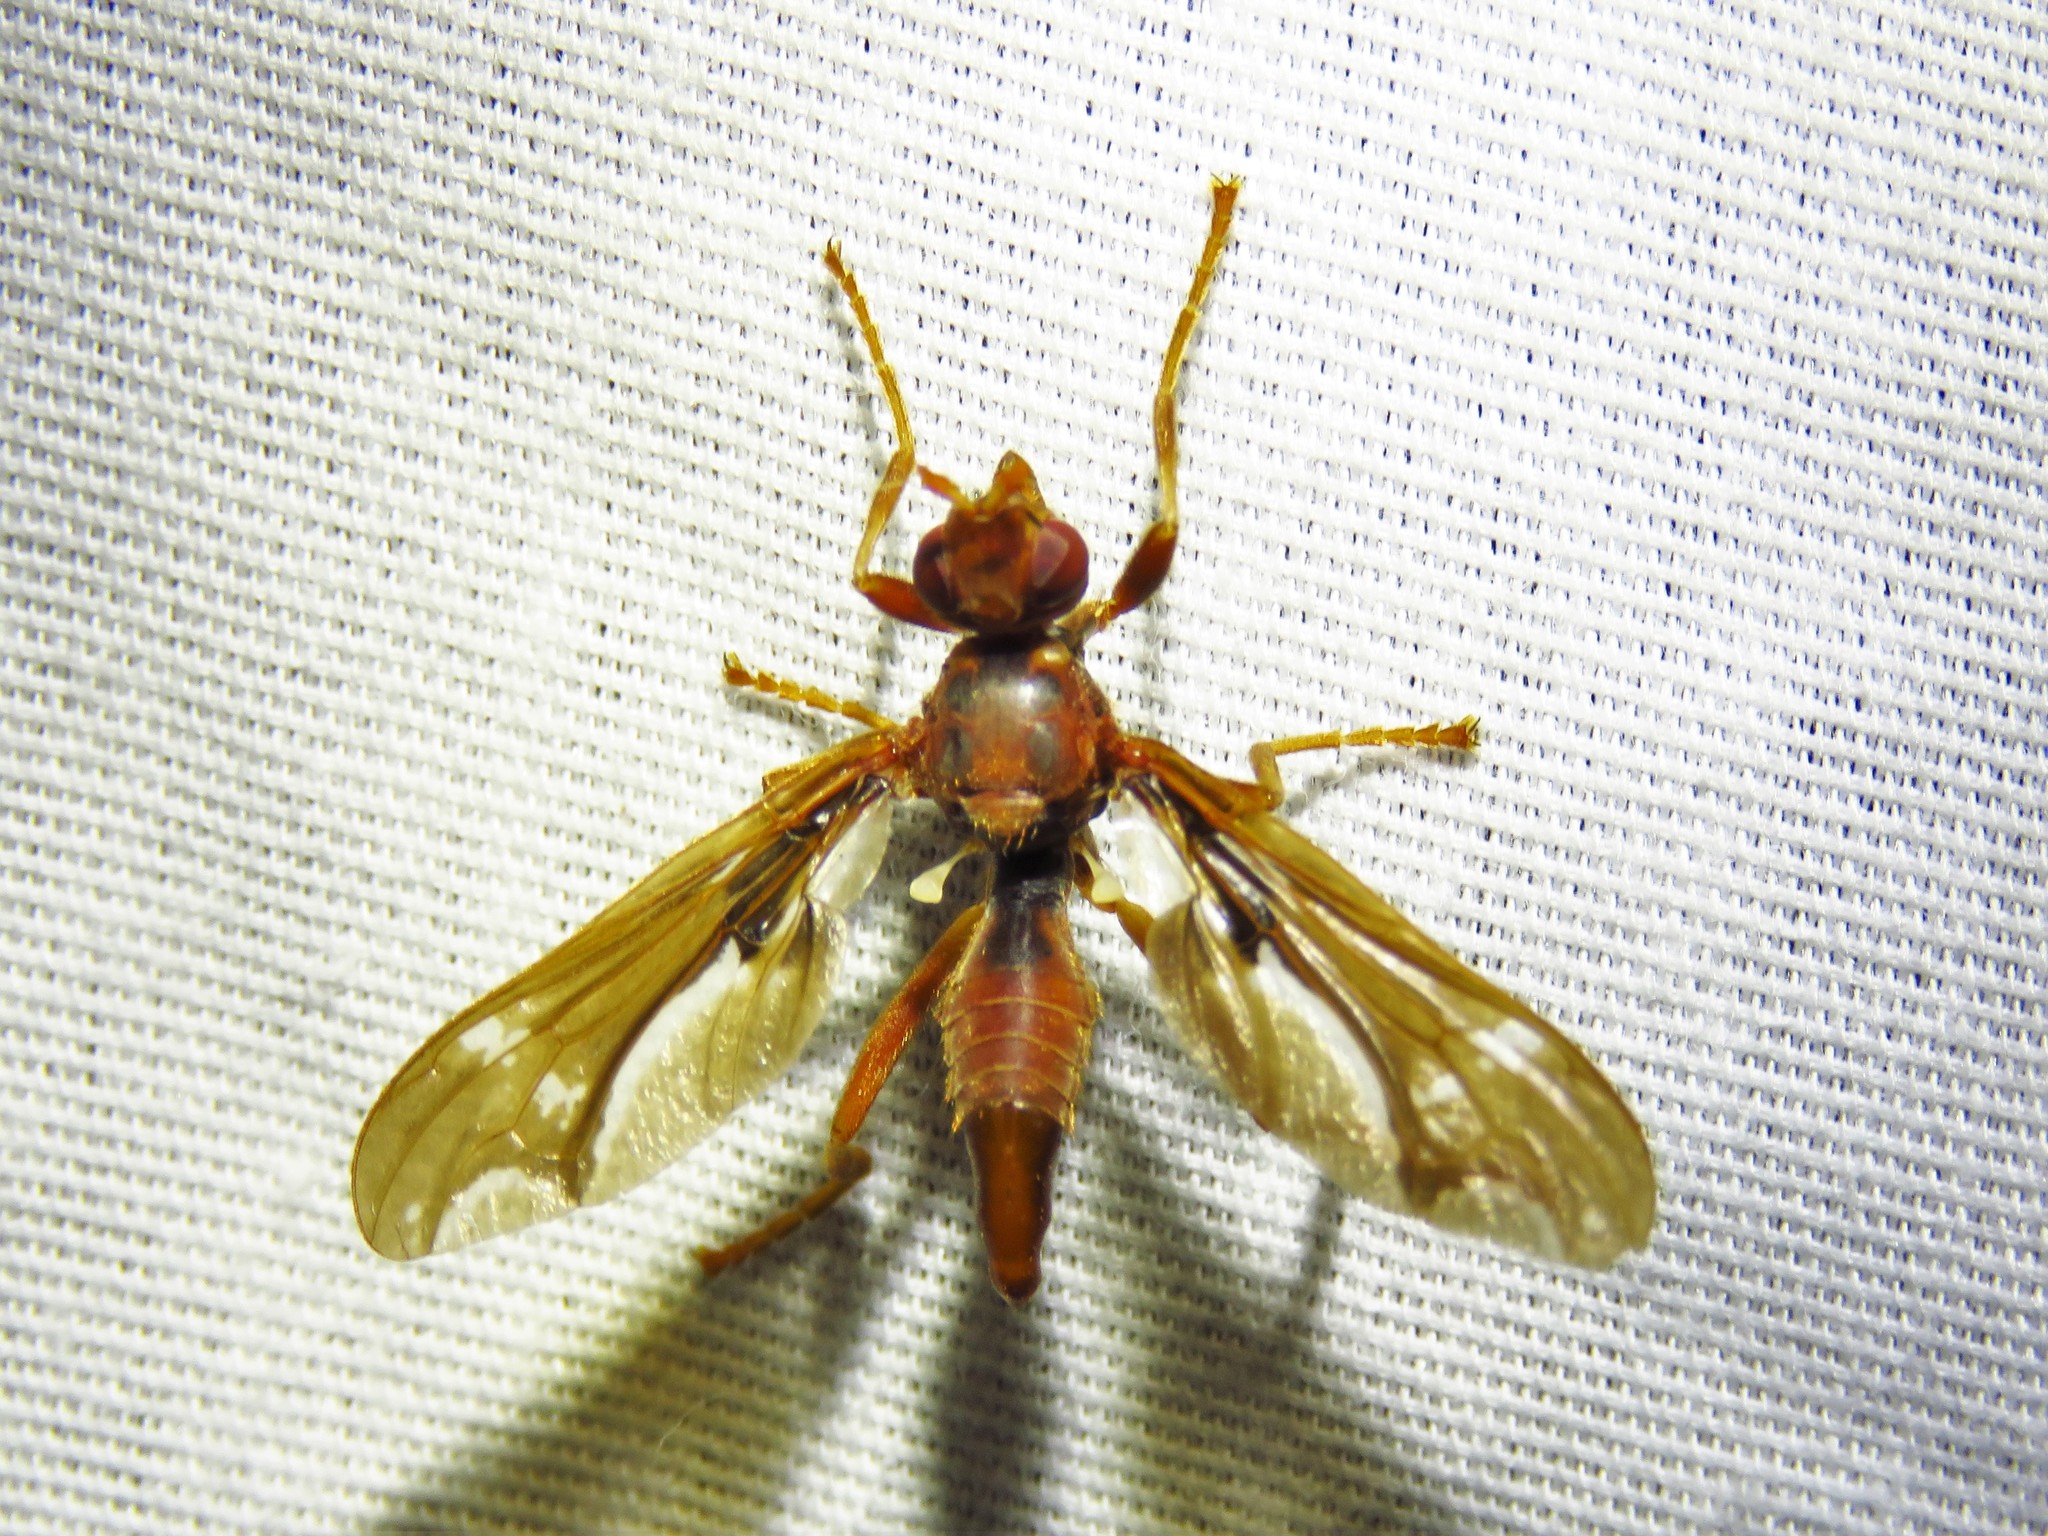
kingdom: Animalia
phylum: Arthropoda
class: Insecta
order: Diptera
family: Pyrgotidae
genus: Pyrgota
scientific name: Pyrgota undata
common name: Waved light fly
